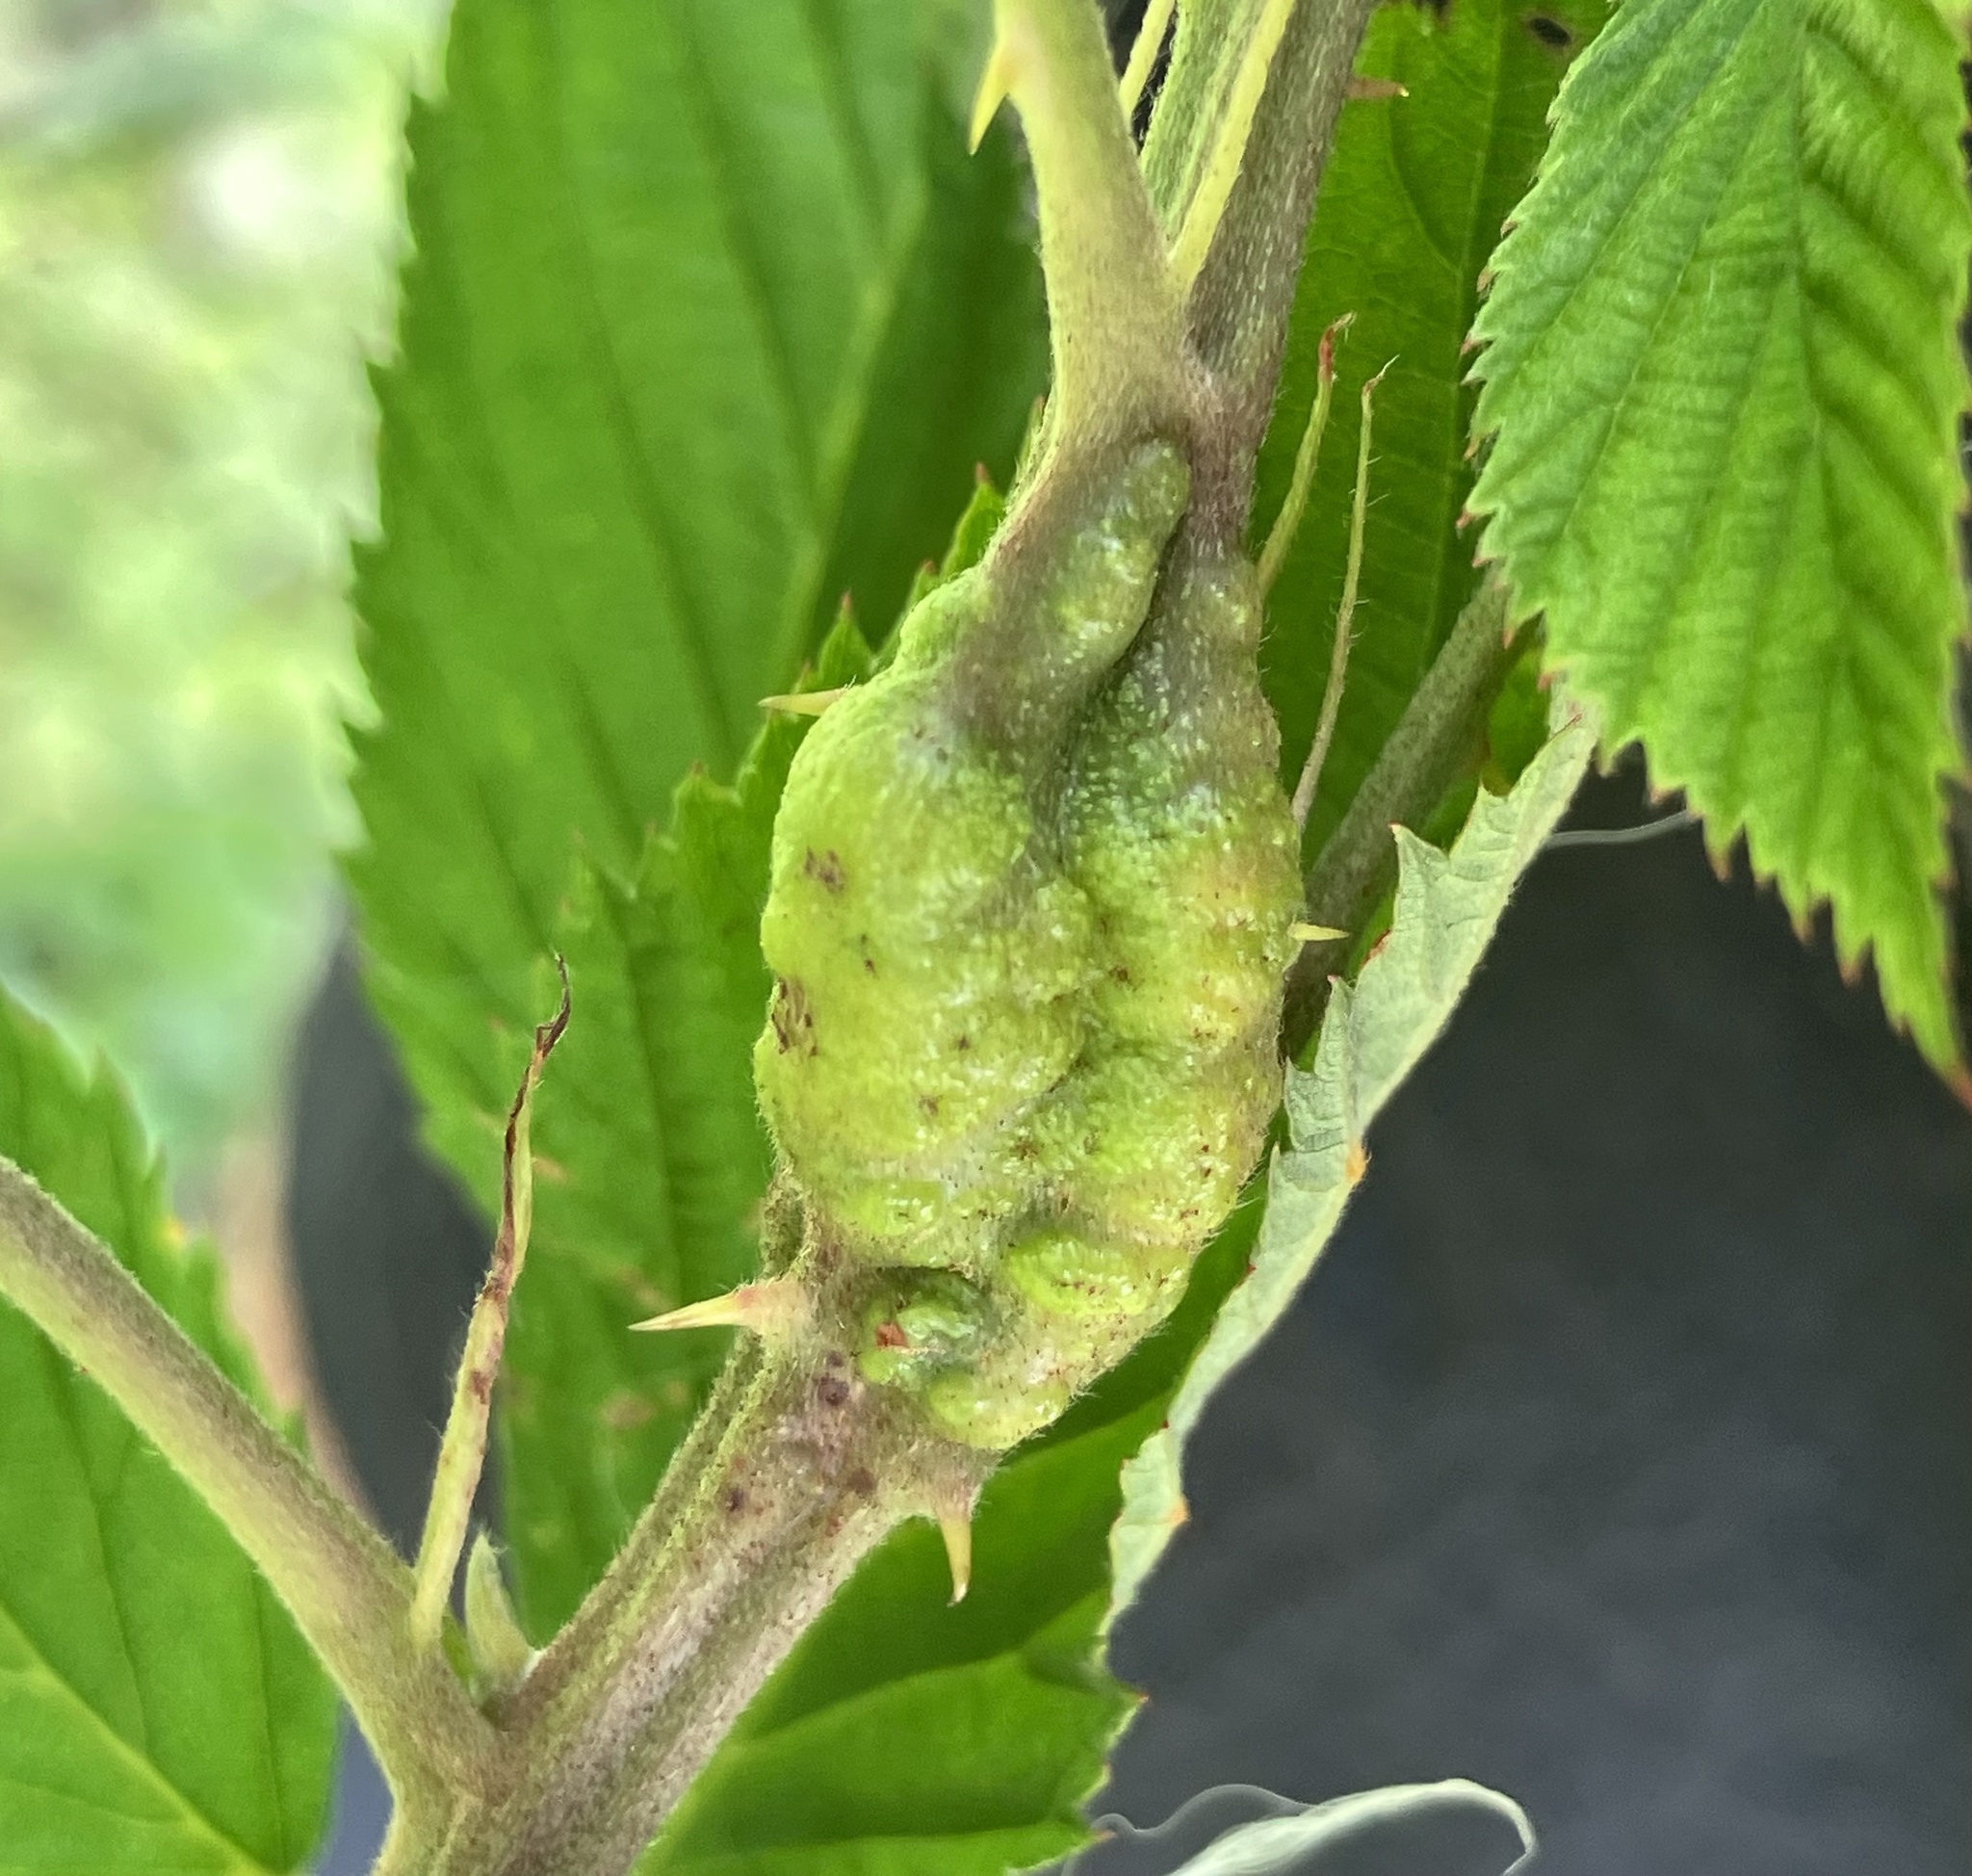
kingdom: Animalia
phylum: Arthropoda
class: Insecta
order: Hymenoptera
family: Cynipidae
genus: Diastrophus
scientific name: Diastrophus
